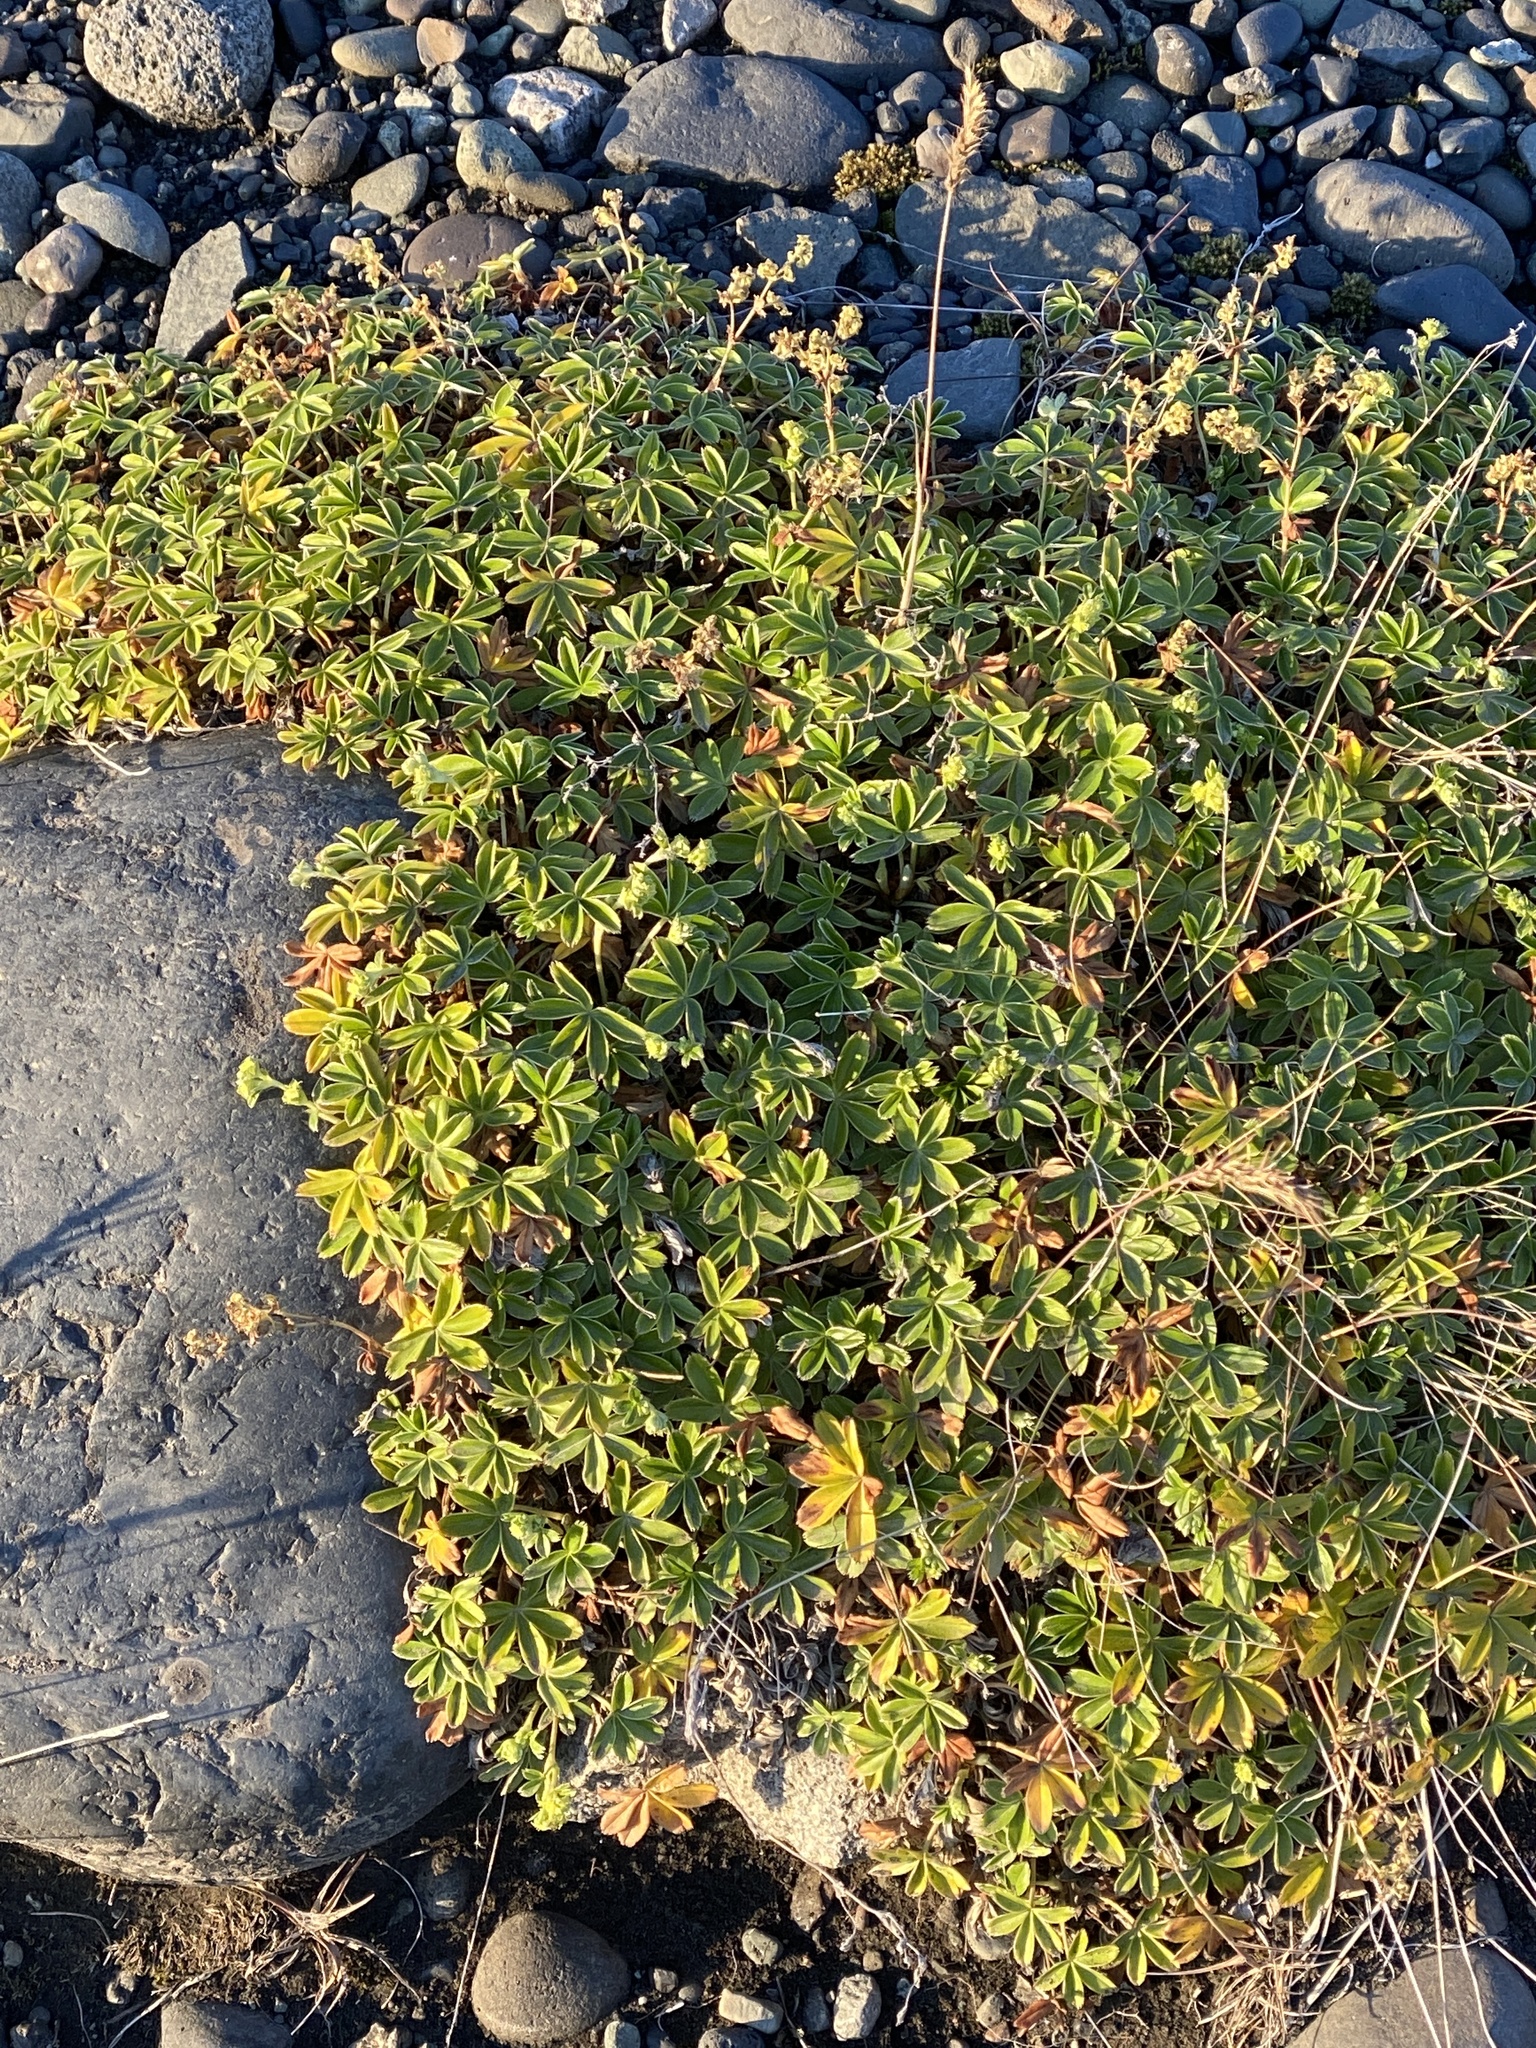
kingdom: Plantae
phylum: Tracheophyta
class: Magnoliopsida
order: Rosales
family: Rosaceae
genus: Alchemilla
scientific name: Alchemilla alpina
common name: Alpine lady's-mantle
